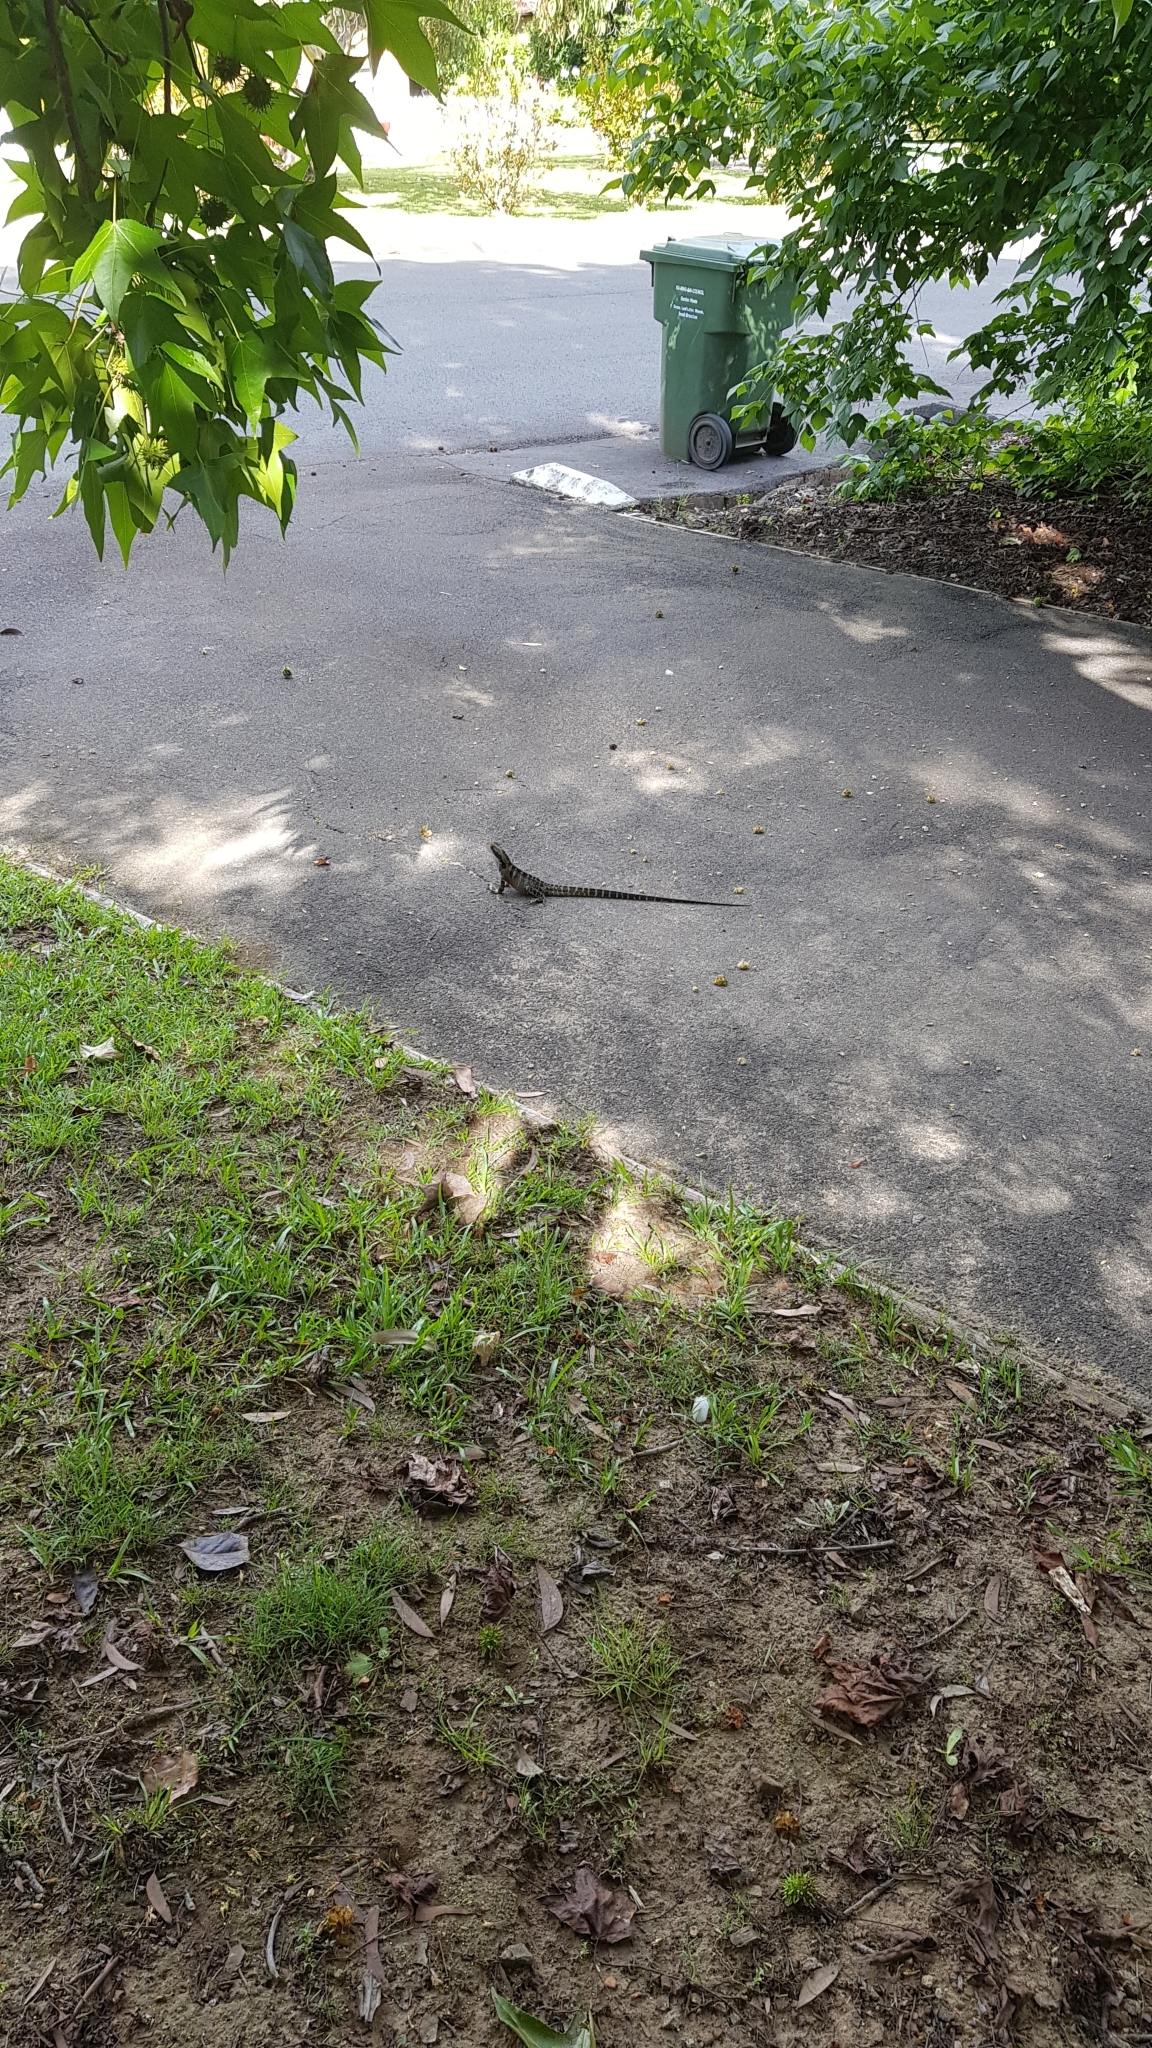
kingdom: Animalia
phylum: Chordata
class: Squamata
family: Agamidae
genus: Intellagama
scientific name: Intellagama lesueurii
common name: Eastern water dragon
